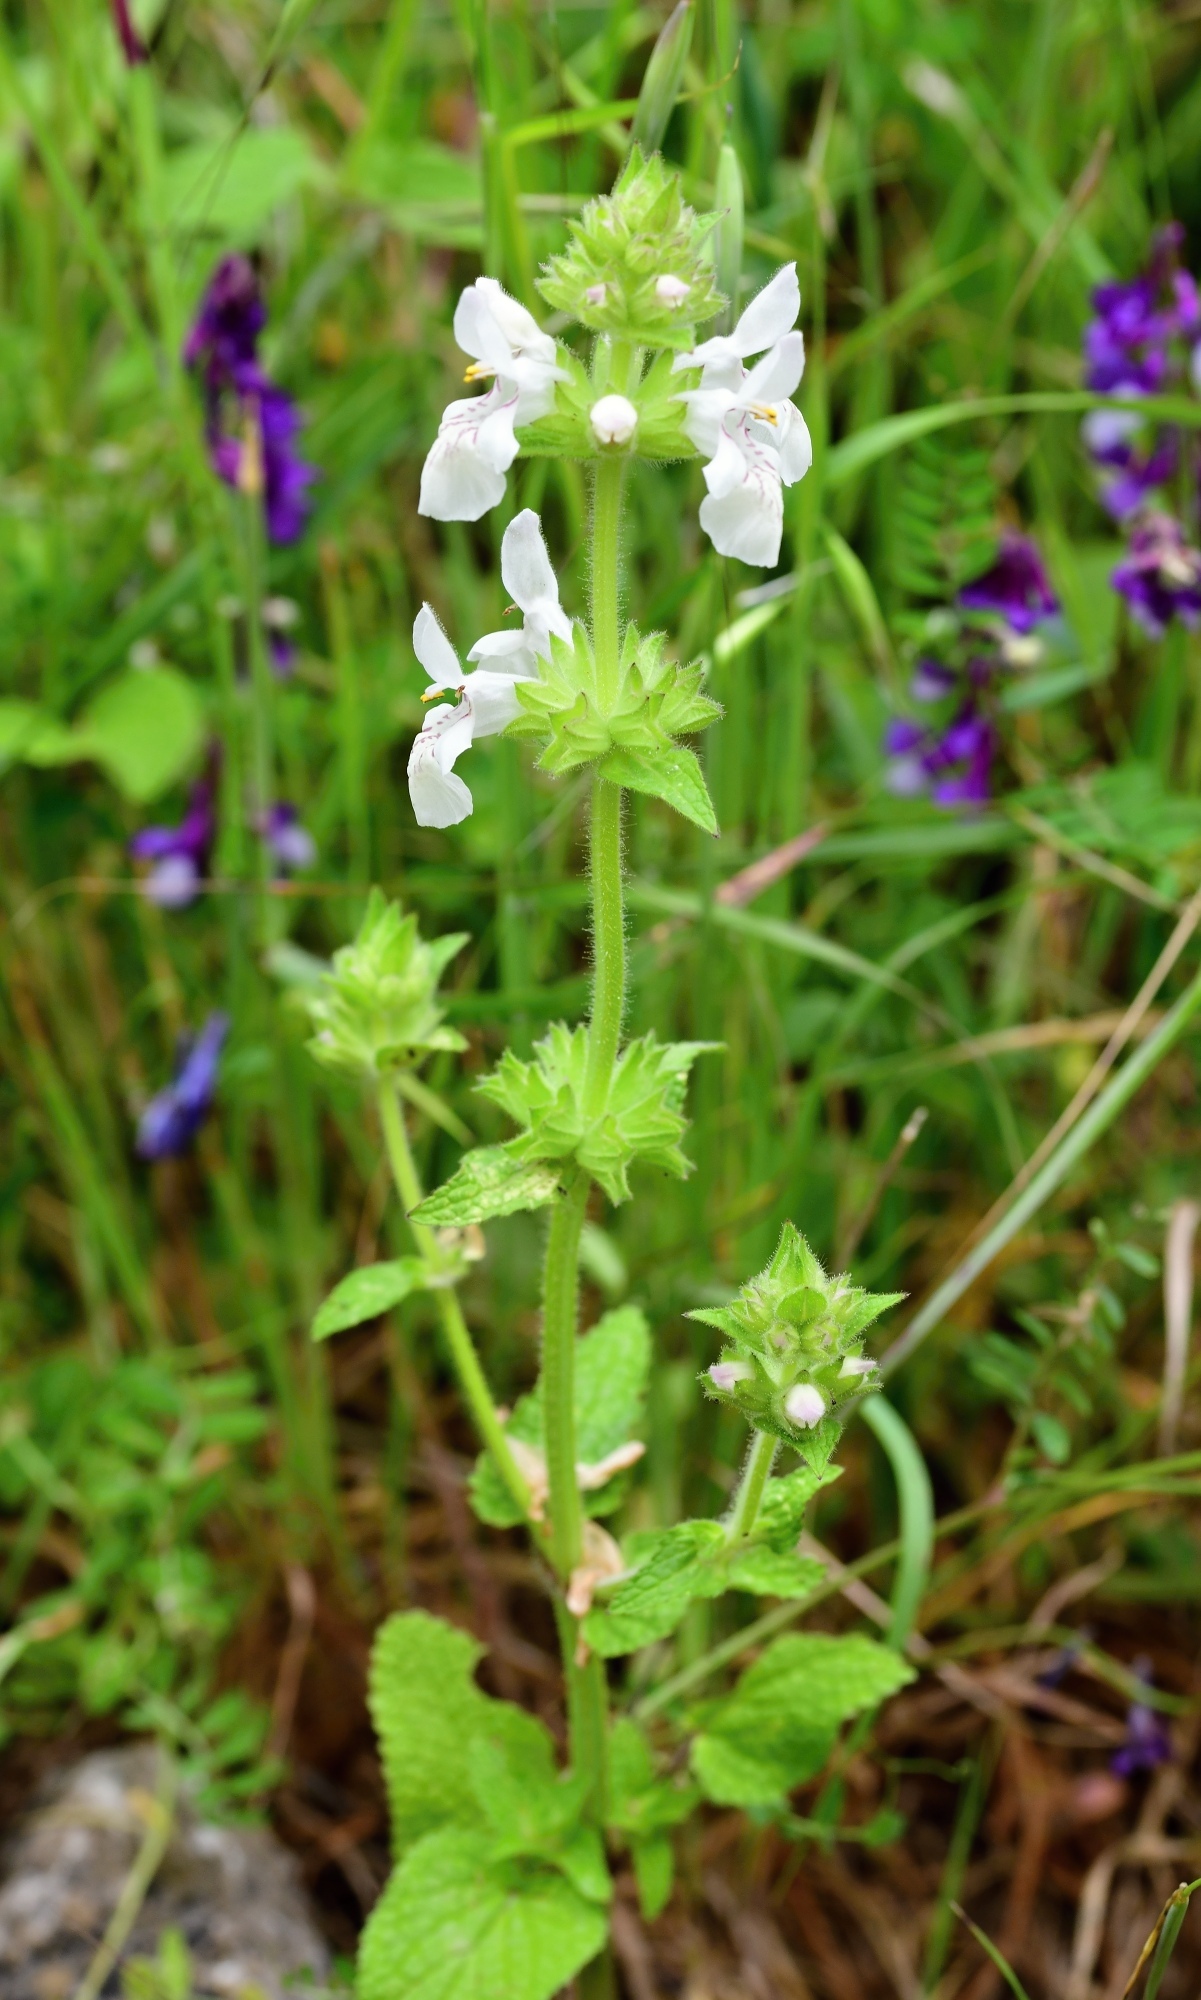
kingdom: Plantae
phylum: Tracheophyta
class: Magnoliopsida
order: Lamiales
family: Lamiaceae
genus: Stachys
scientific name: Stachys spinulosa
